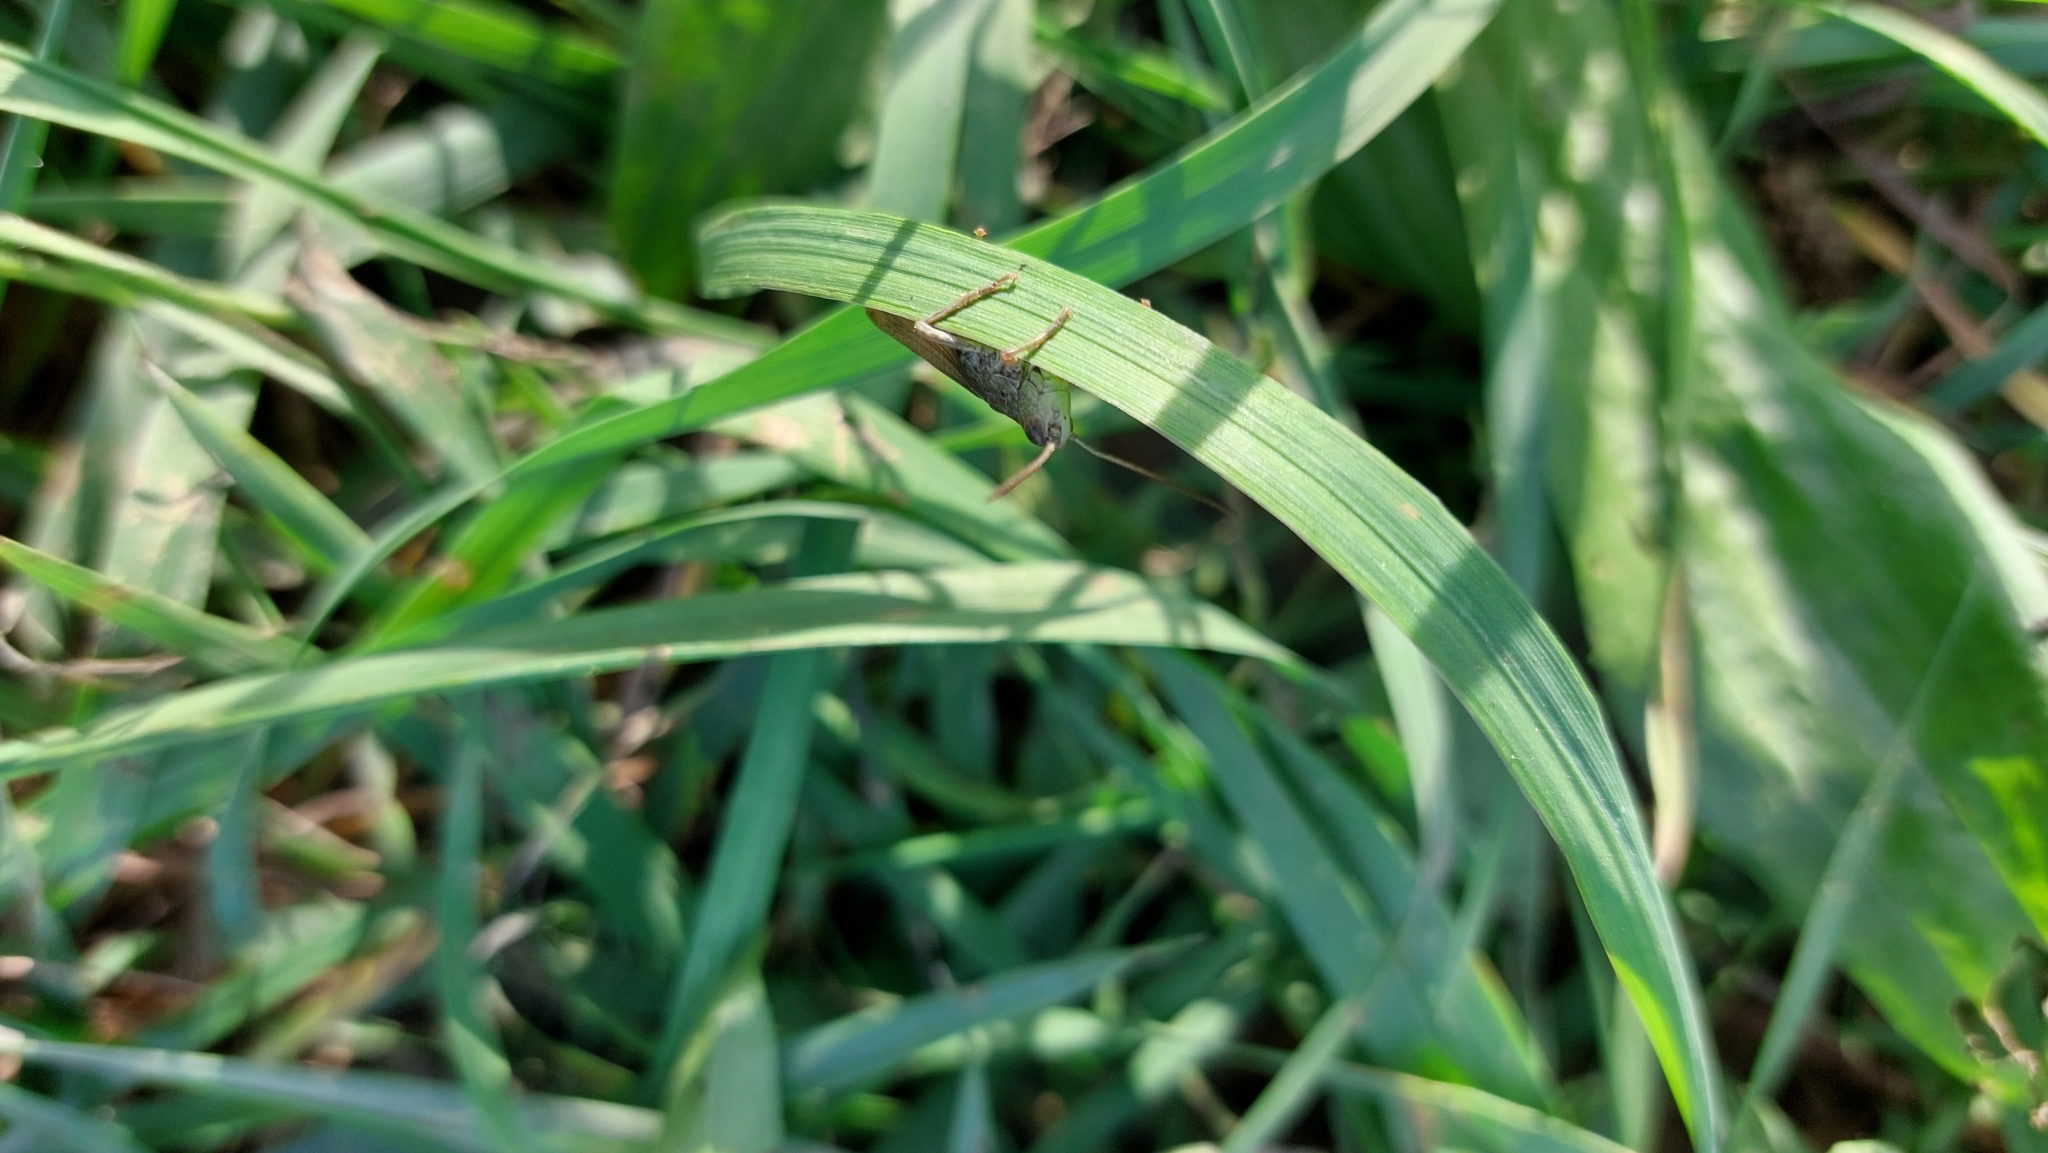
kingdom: Animalia
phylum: Arthropoda
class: Insecta
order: Orthoptera
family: Acrididae
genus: Chorthippus
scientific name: Chorthippus apricarius
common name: Upland field grasshopper
